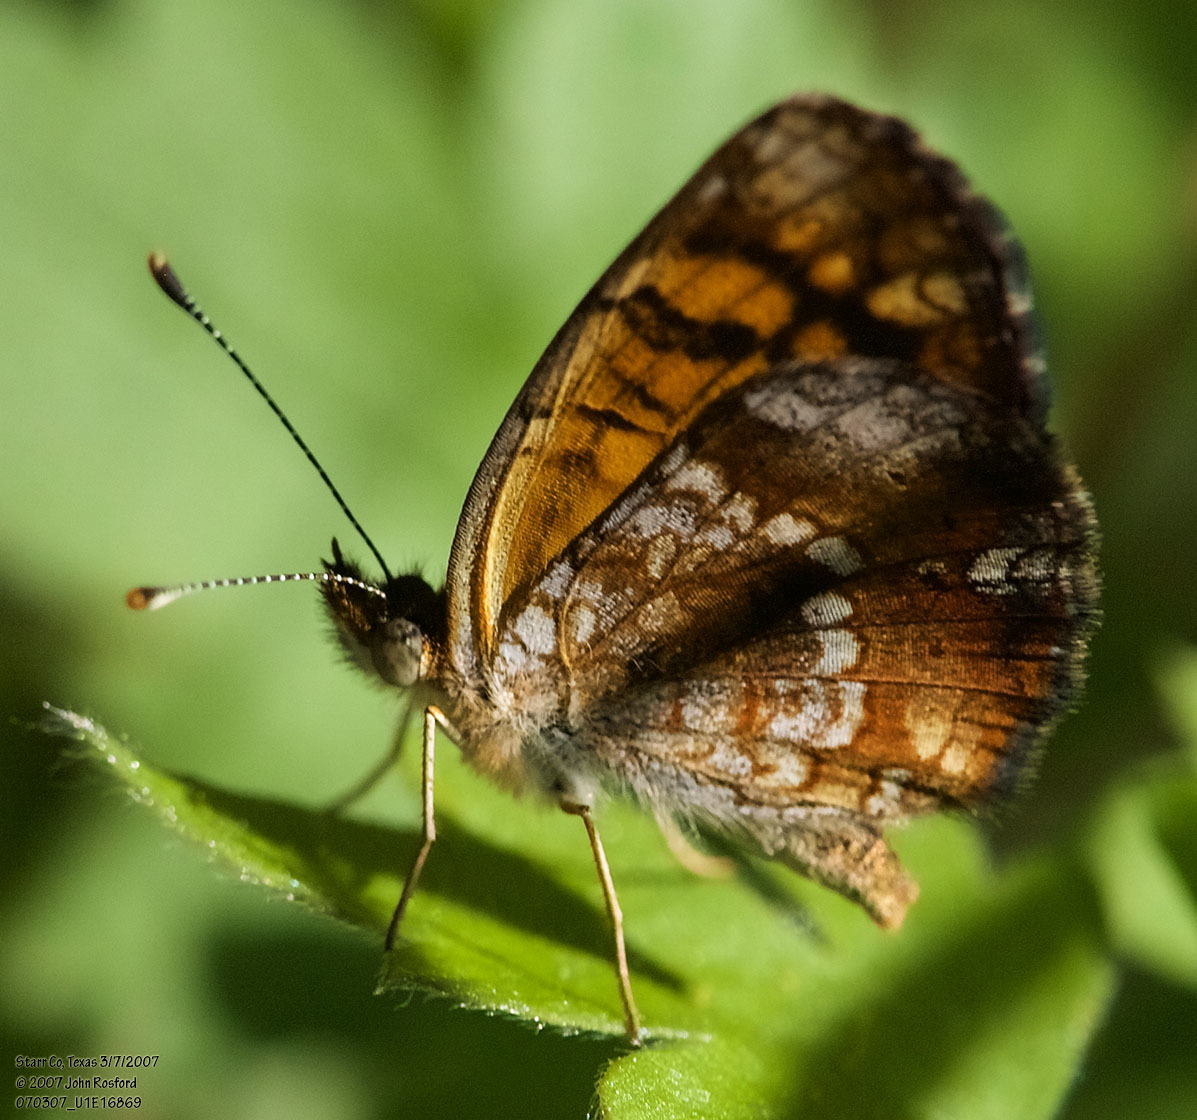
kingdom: Animalia
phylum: Arthropoda
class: Insecta
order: Lepidoptera
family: Nymphalidae
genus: Phyciodes
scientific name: Phyciodes vesta
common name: Vesta crescent
